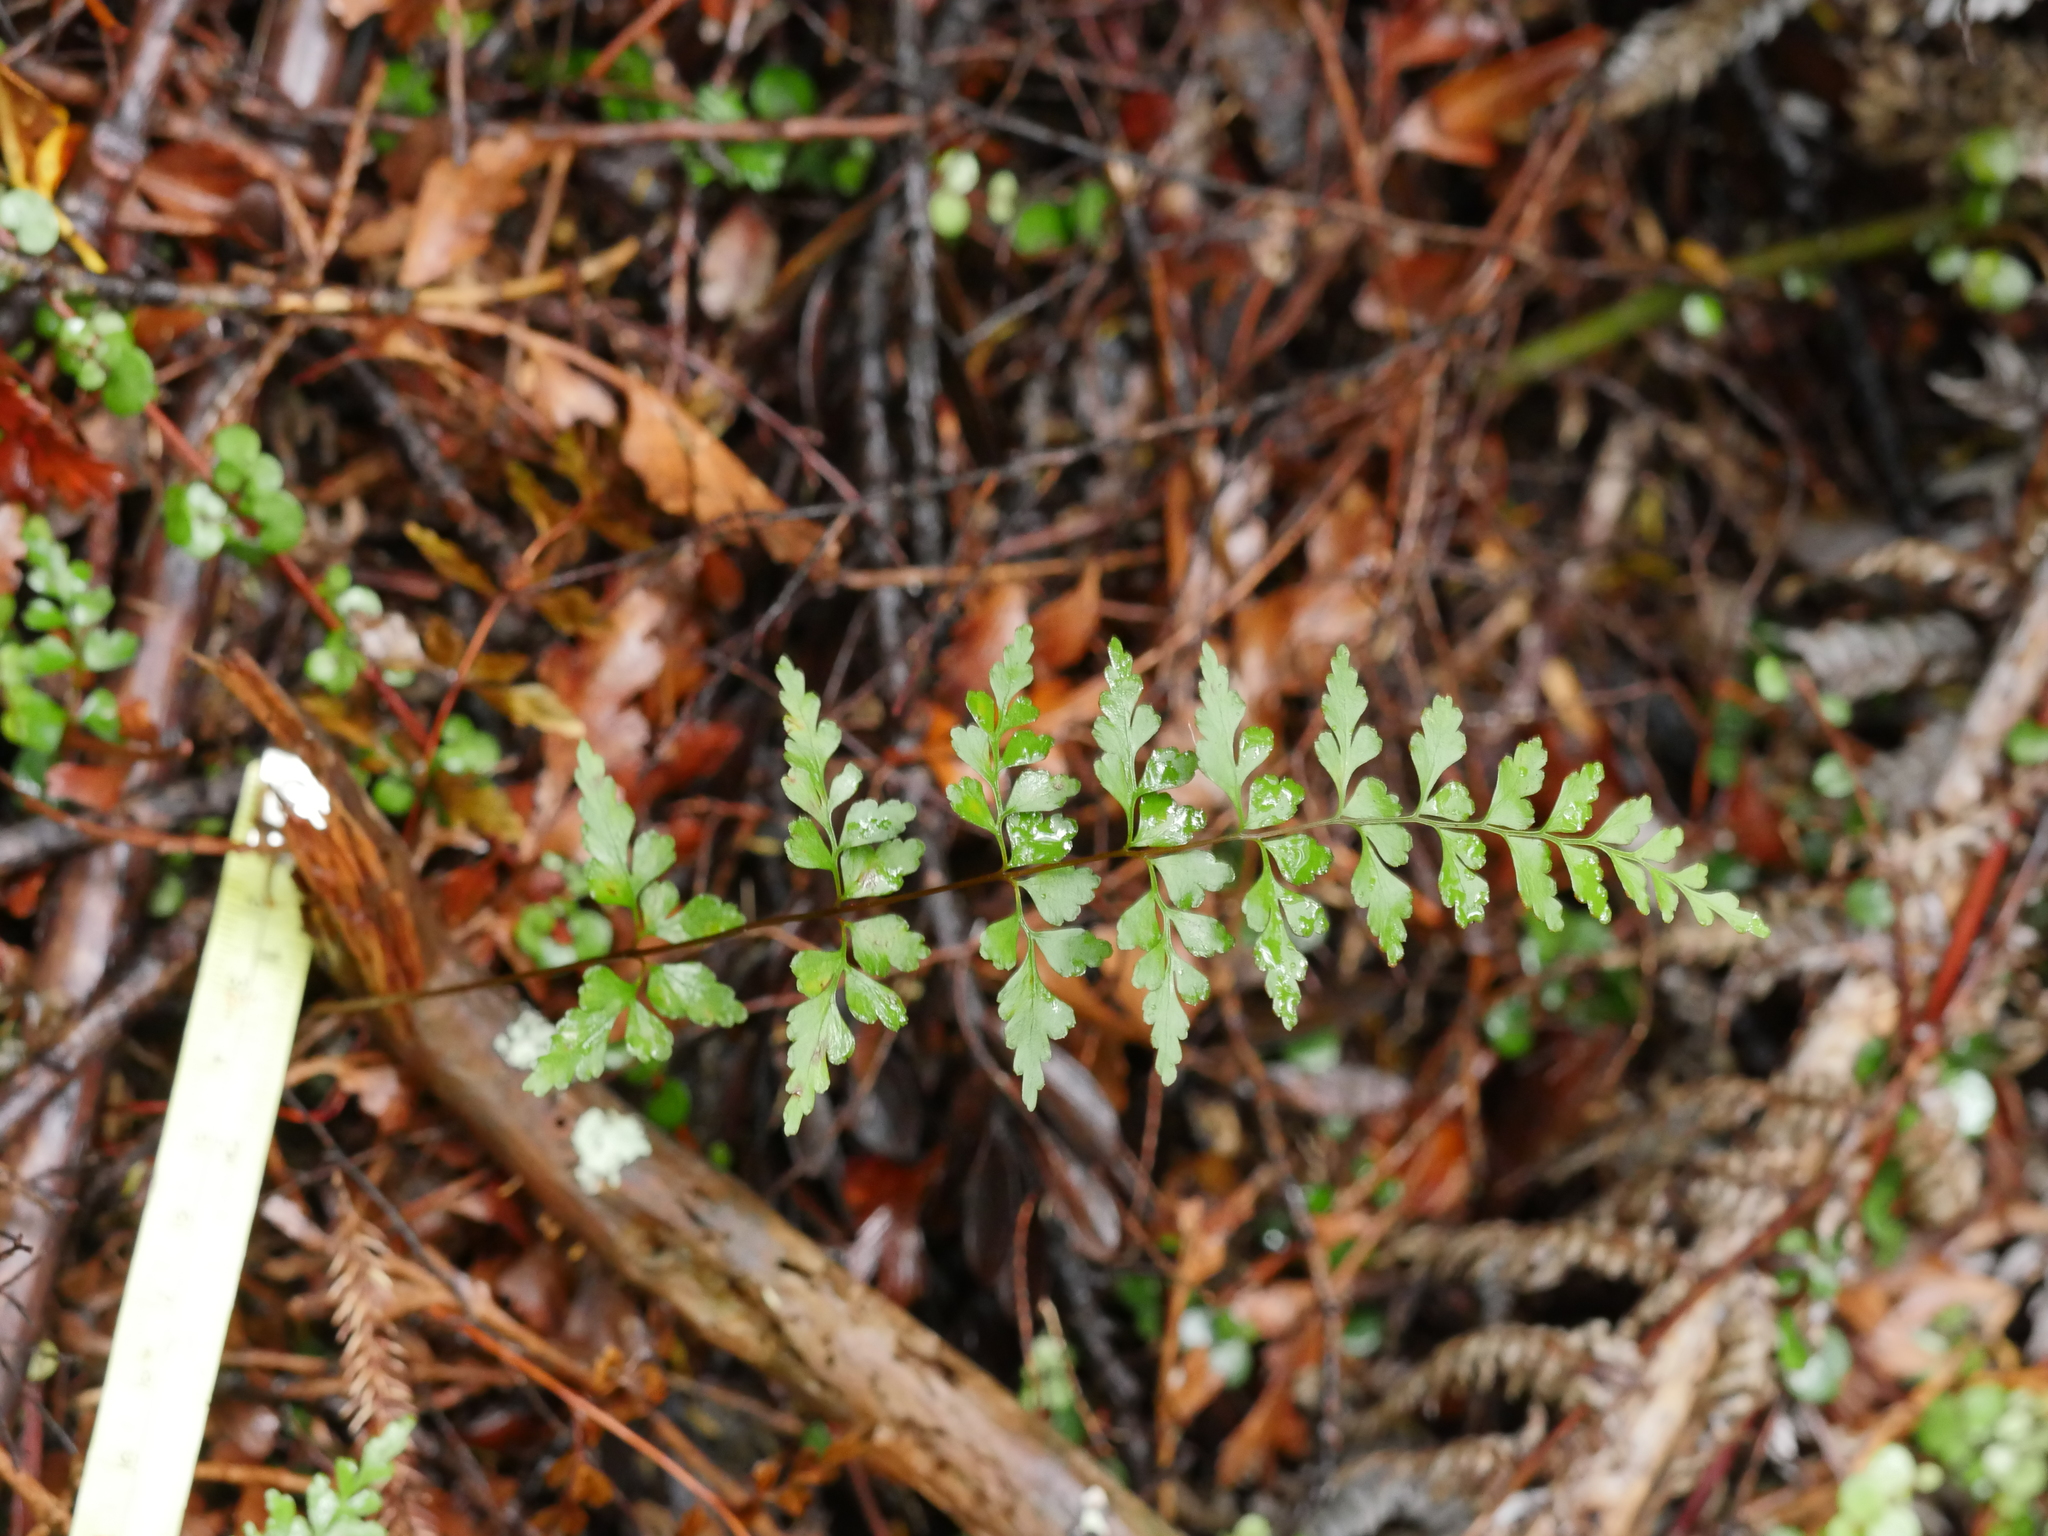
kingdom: Plantae
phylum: Tracheophyta
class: Polypodiopsida
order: Polypodiales
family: Lindsaeaceae
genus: Lindsaea
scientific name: Lindsaea trichomanoides
